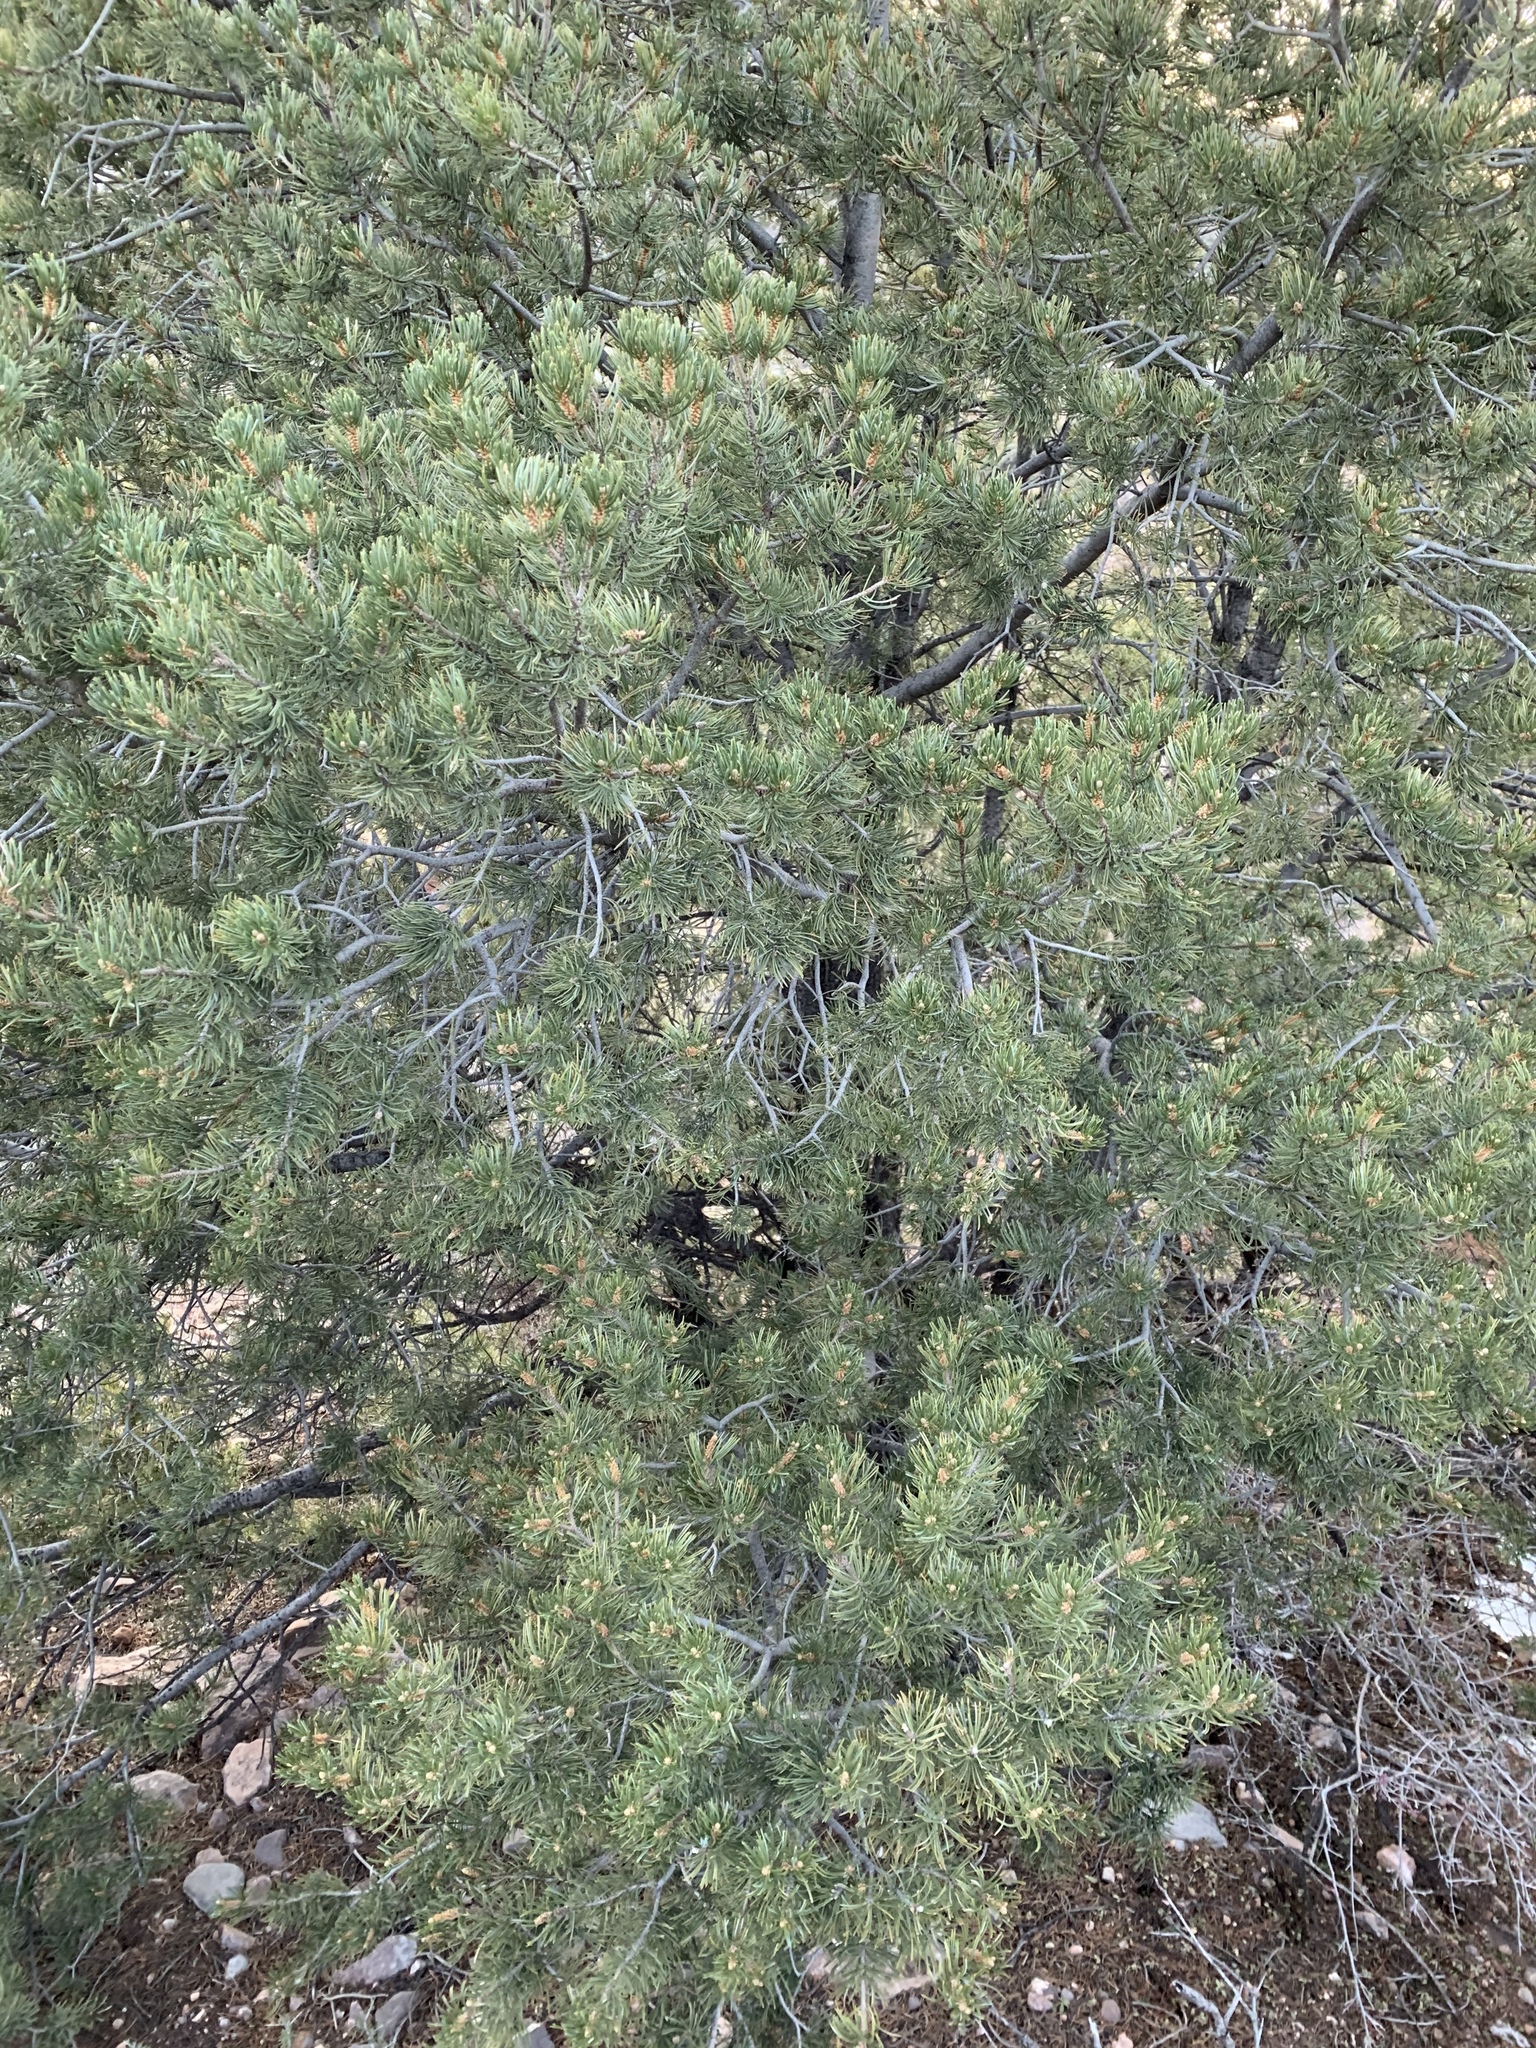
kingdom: Plantae
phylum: Tracheophyta
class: Pinopsida
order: Pinales
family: Pinaceae
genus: Pinus
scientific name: Pinus edulis
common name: Colorado pinyon
